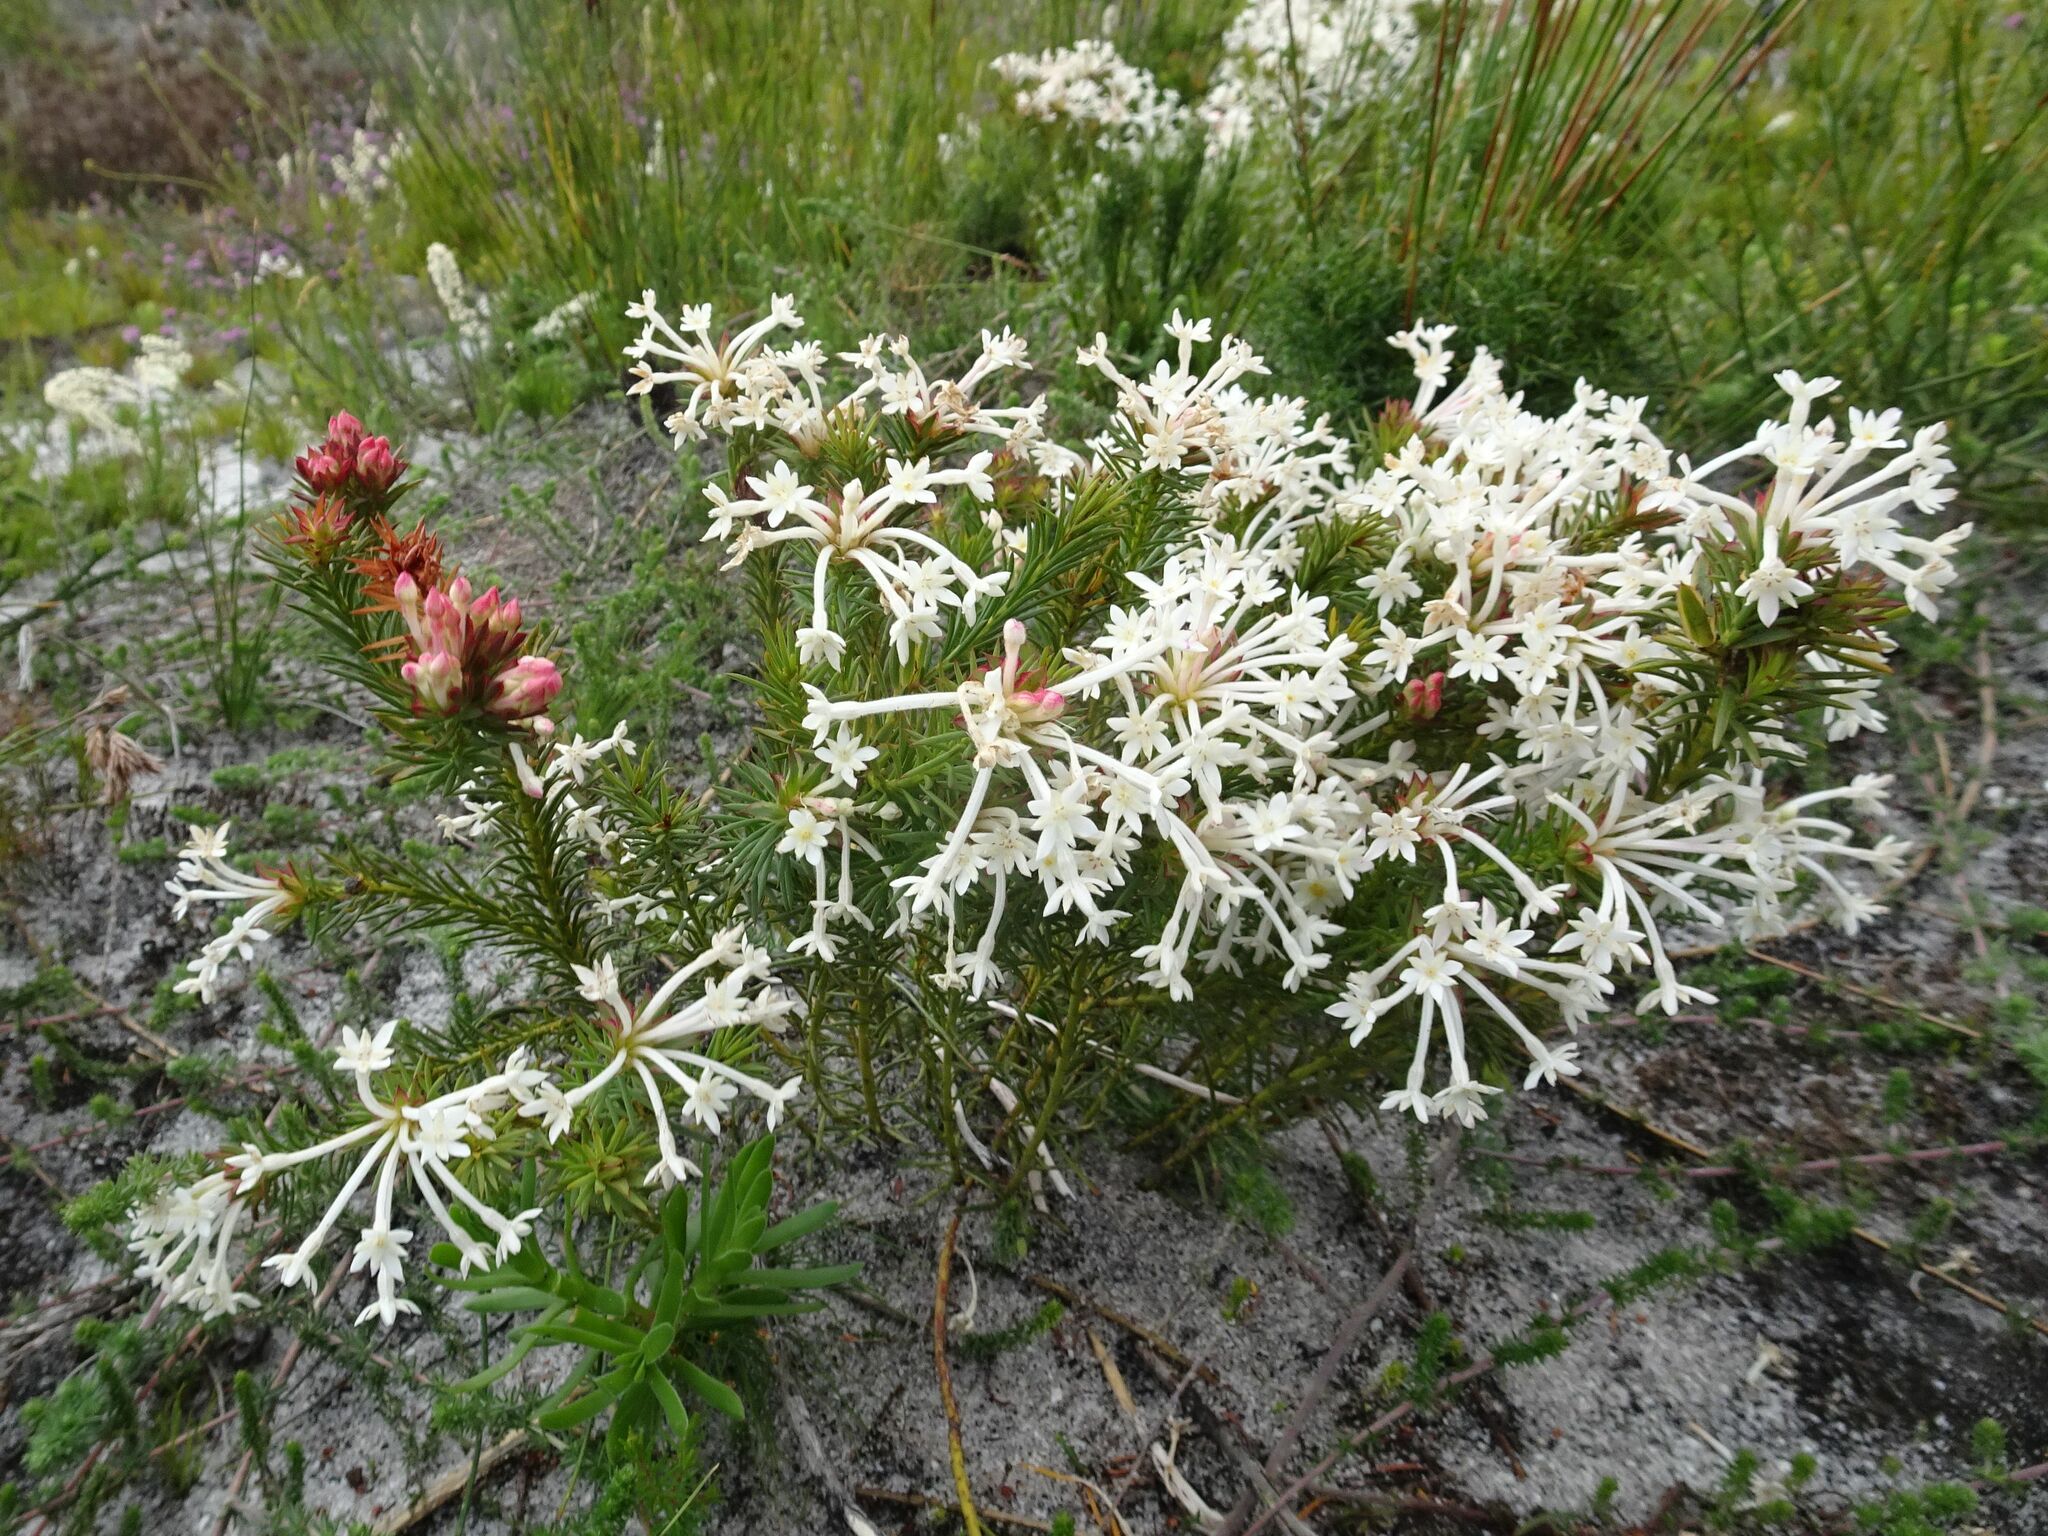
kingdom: Plantae
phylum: Tracheophyta
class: Magnoliopsida
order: Malvales
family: Thymelaeaceae
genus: Gnidia
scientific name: Gnidia pinifolia
